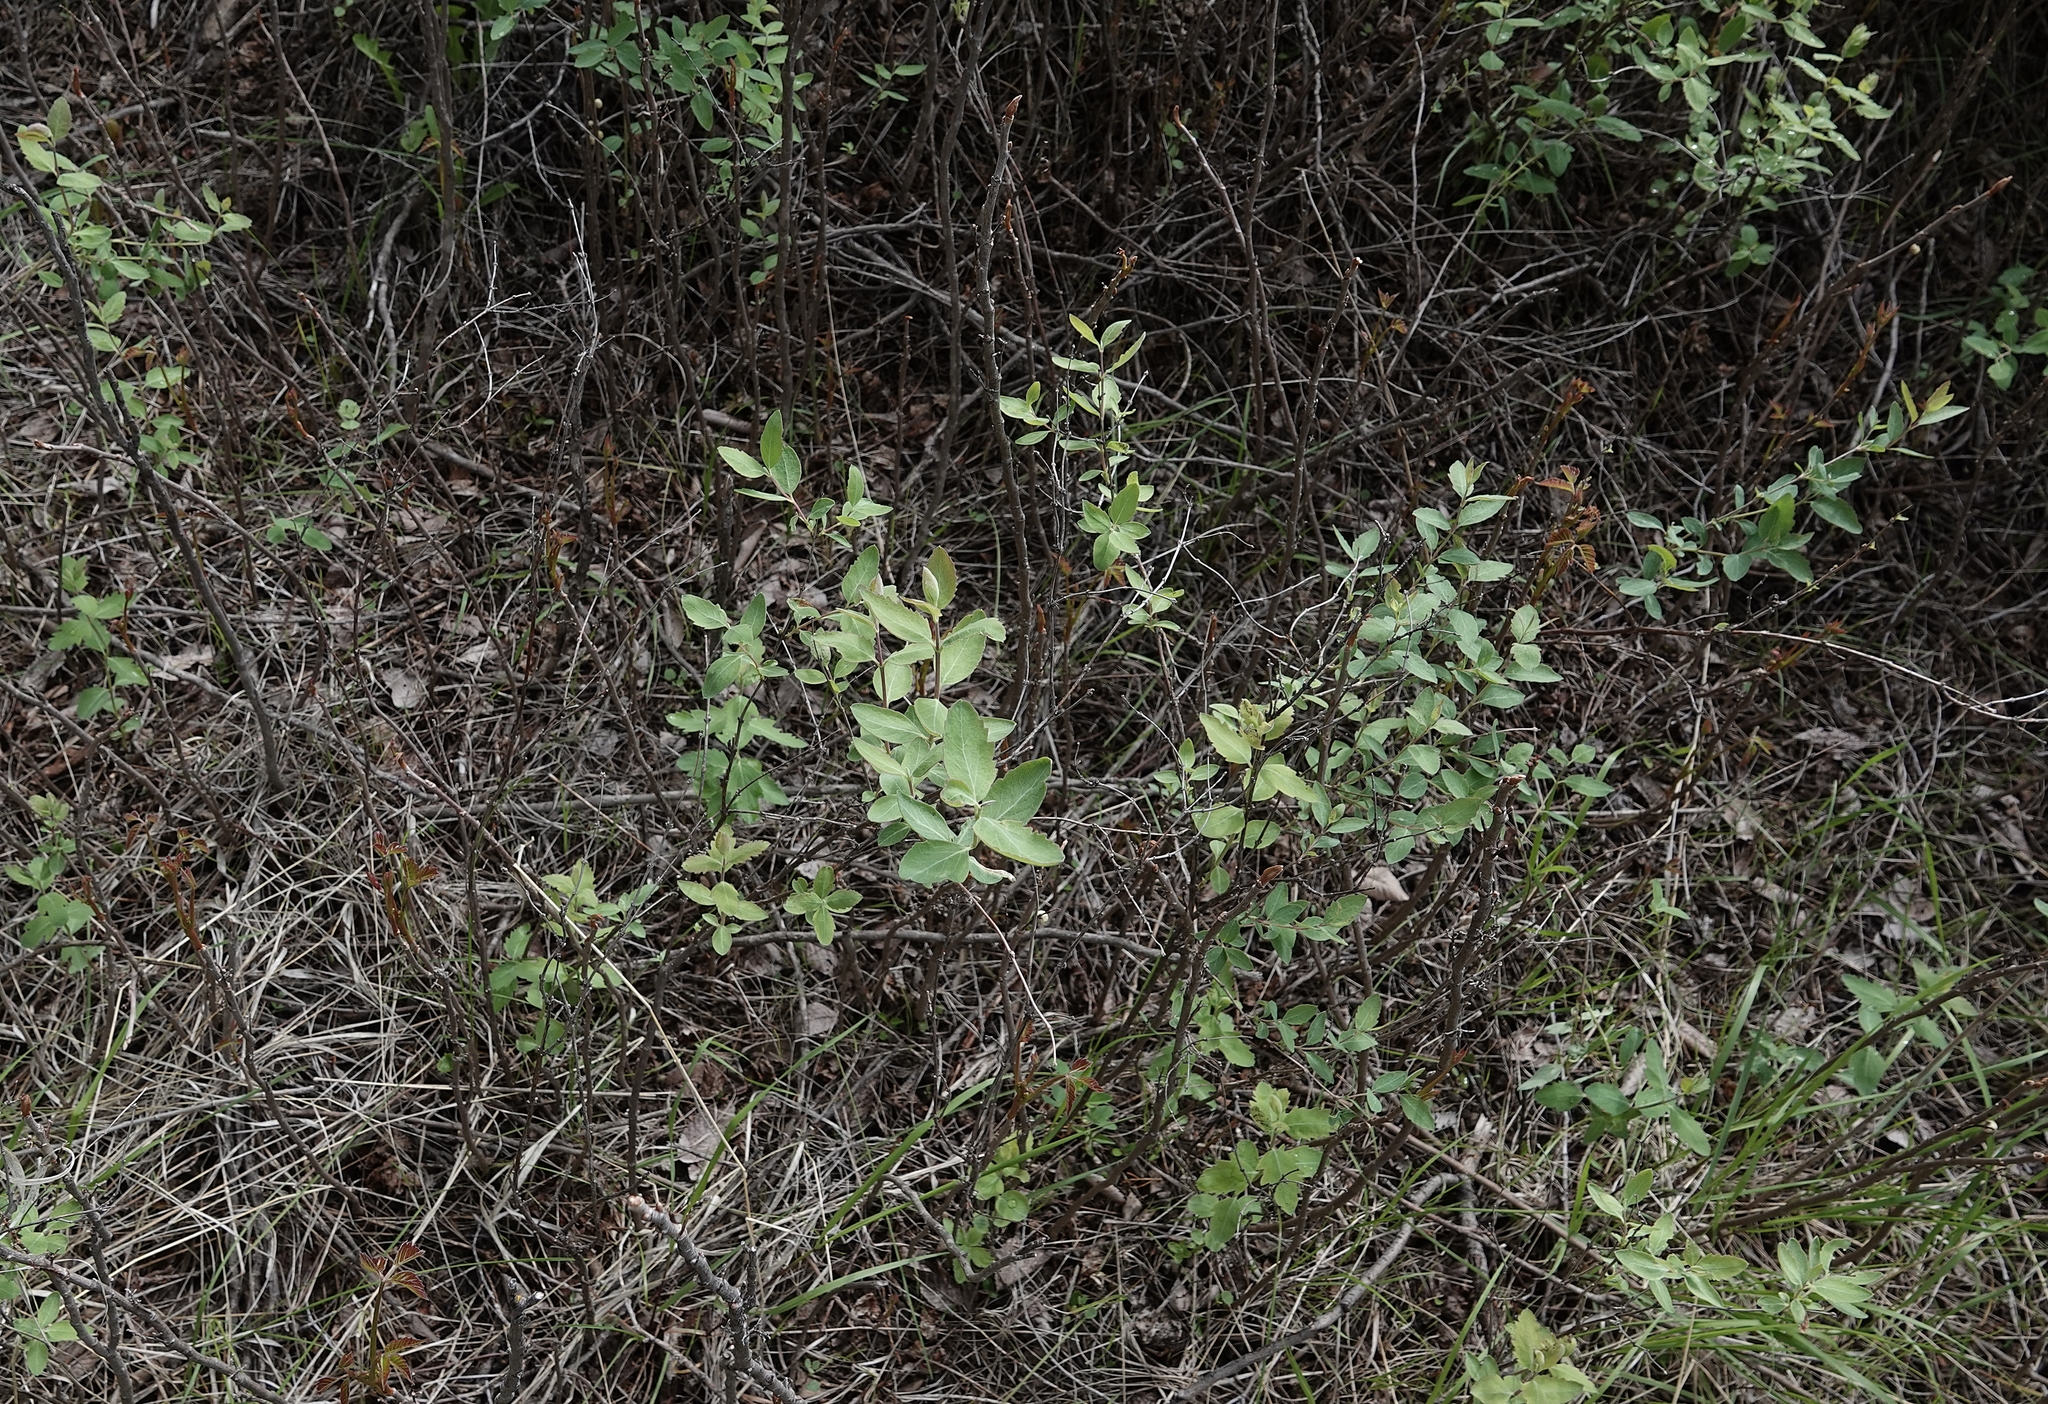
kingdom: Plantae
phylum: Tracheophyta
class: Magnoliopsida
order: Dipsacales
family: Caprifoliaceae
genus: Symphoricarpos
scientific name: Symphoricarpos occidentalis
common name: Wolfberry
